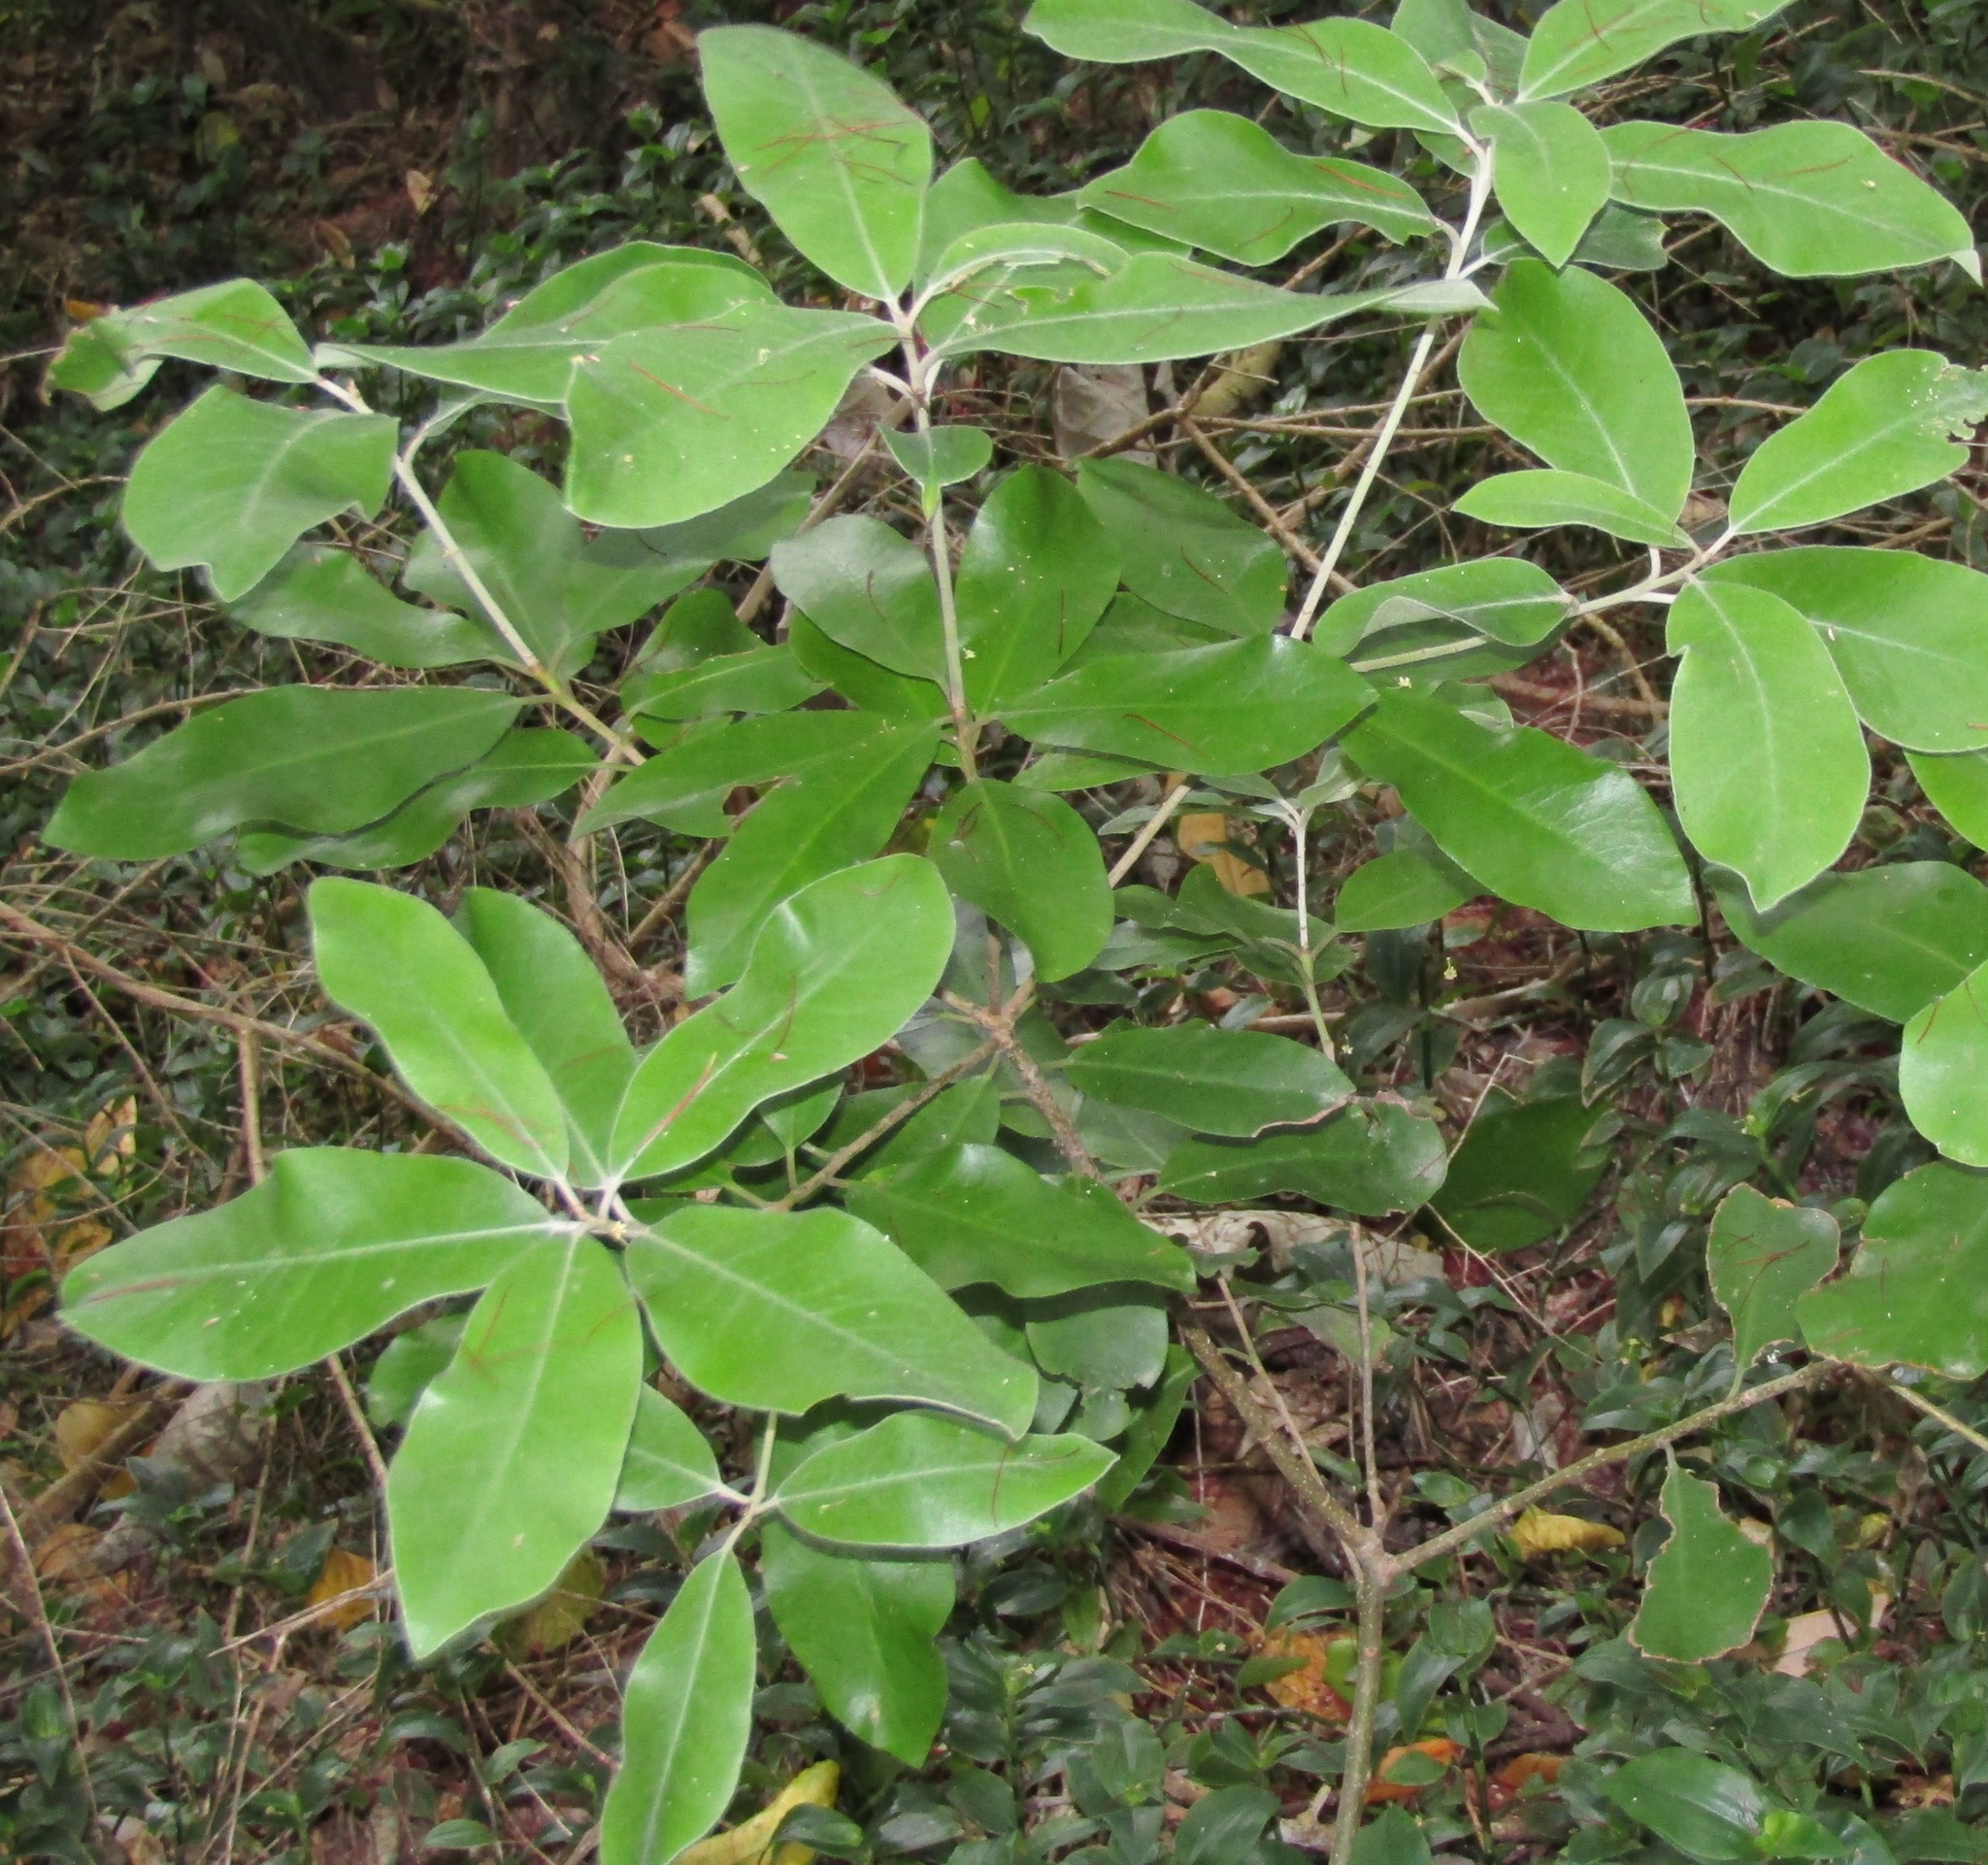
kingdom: Plantae
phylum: Tracheophyta
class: Magnoliopsida
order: Apiales
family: Pittosporaceae
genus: Pittosporum
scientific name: Pittosporum crassifolium
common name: Karo
